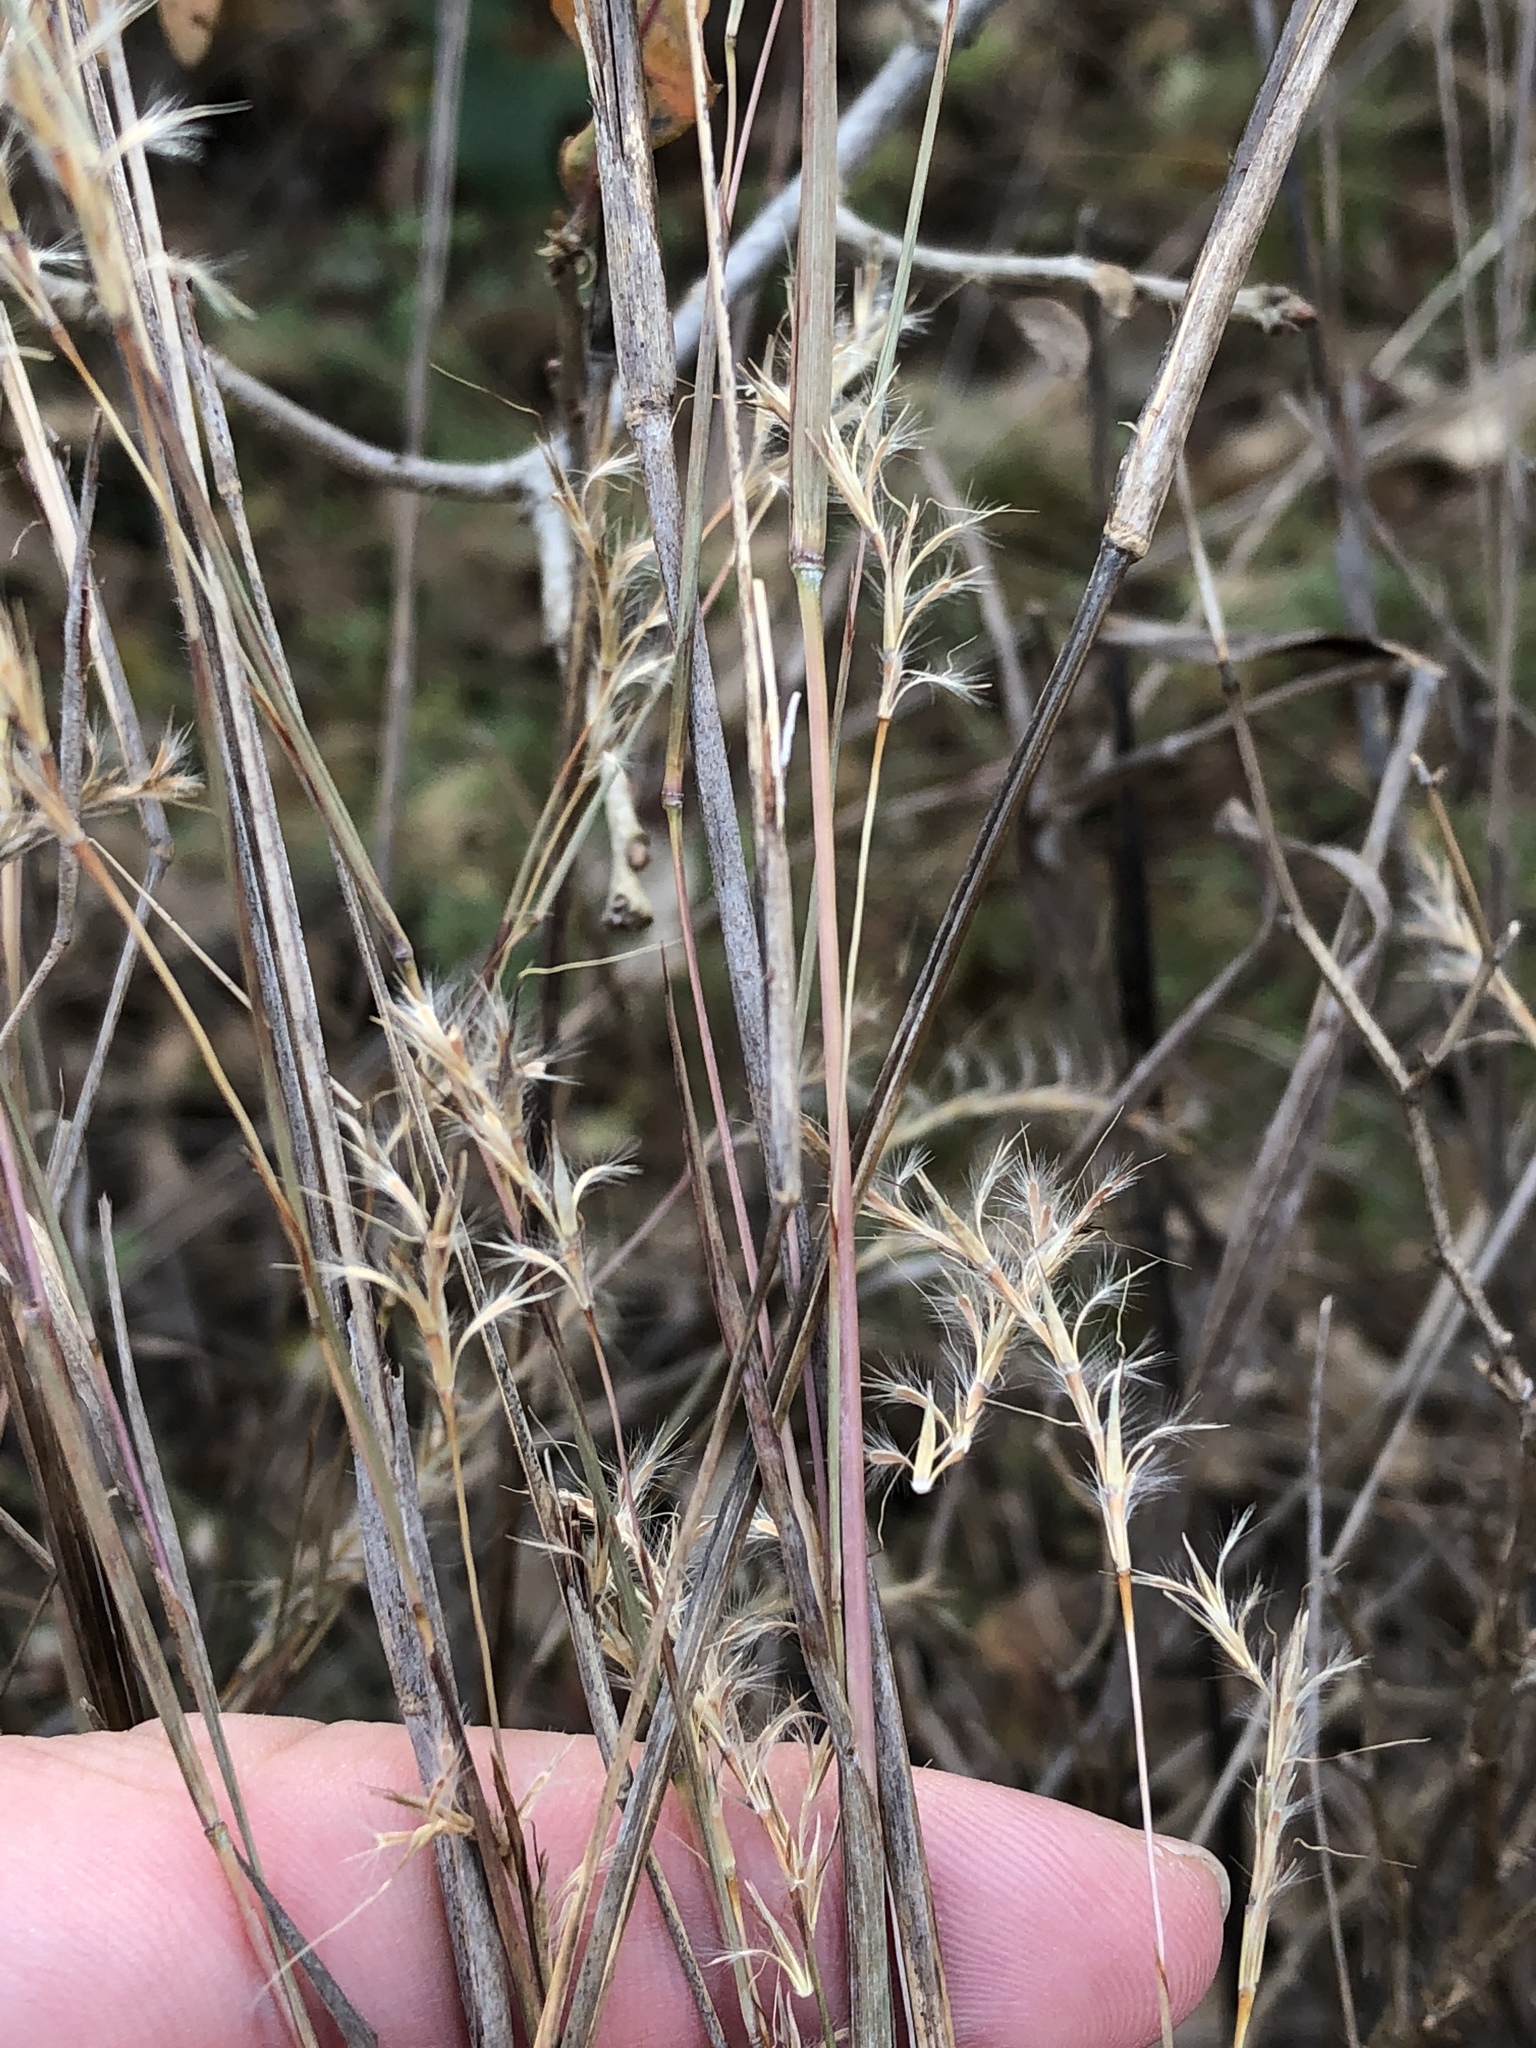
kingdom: Plantae
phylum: Tracheophyta
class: Liliopsida
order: Poales
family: Poaceae
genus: Schizachyrium
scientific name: Schizachyrium scoparium
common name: Little bluestem
